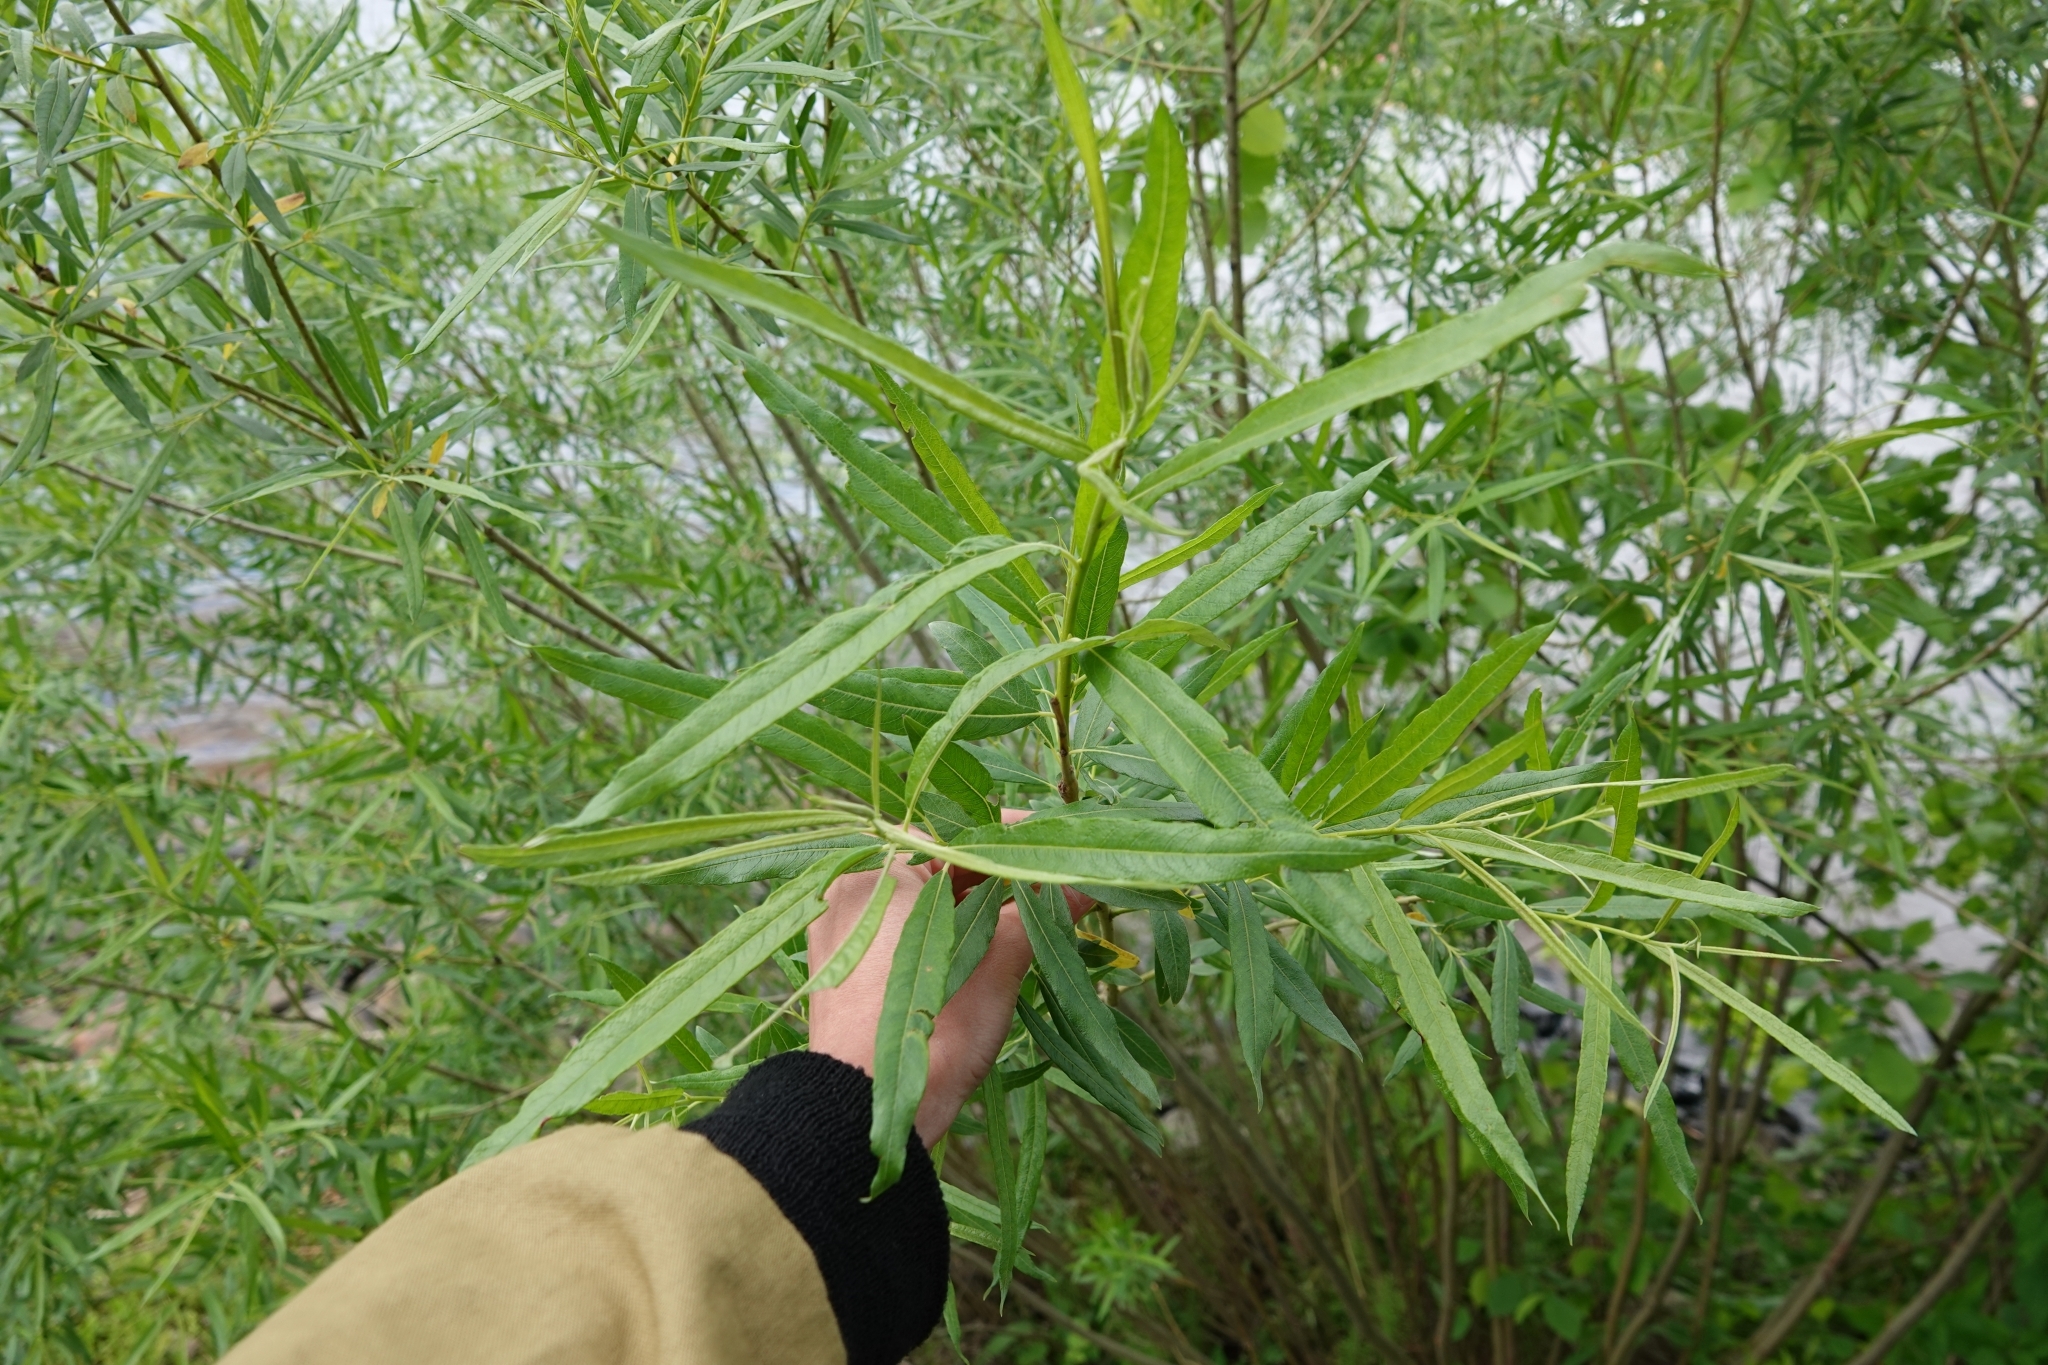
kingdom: Plantae
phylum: Tracheophyta
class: Magnoliopsida
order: Malpighiales
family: Salicaceae
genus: Salix
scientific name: Salix viminalis
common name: Osier
